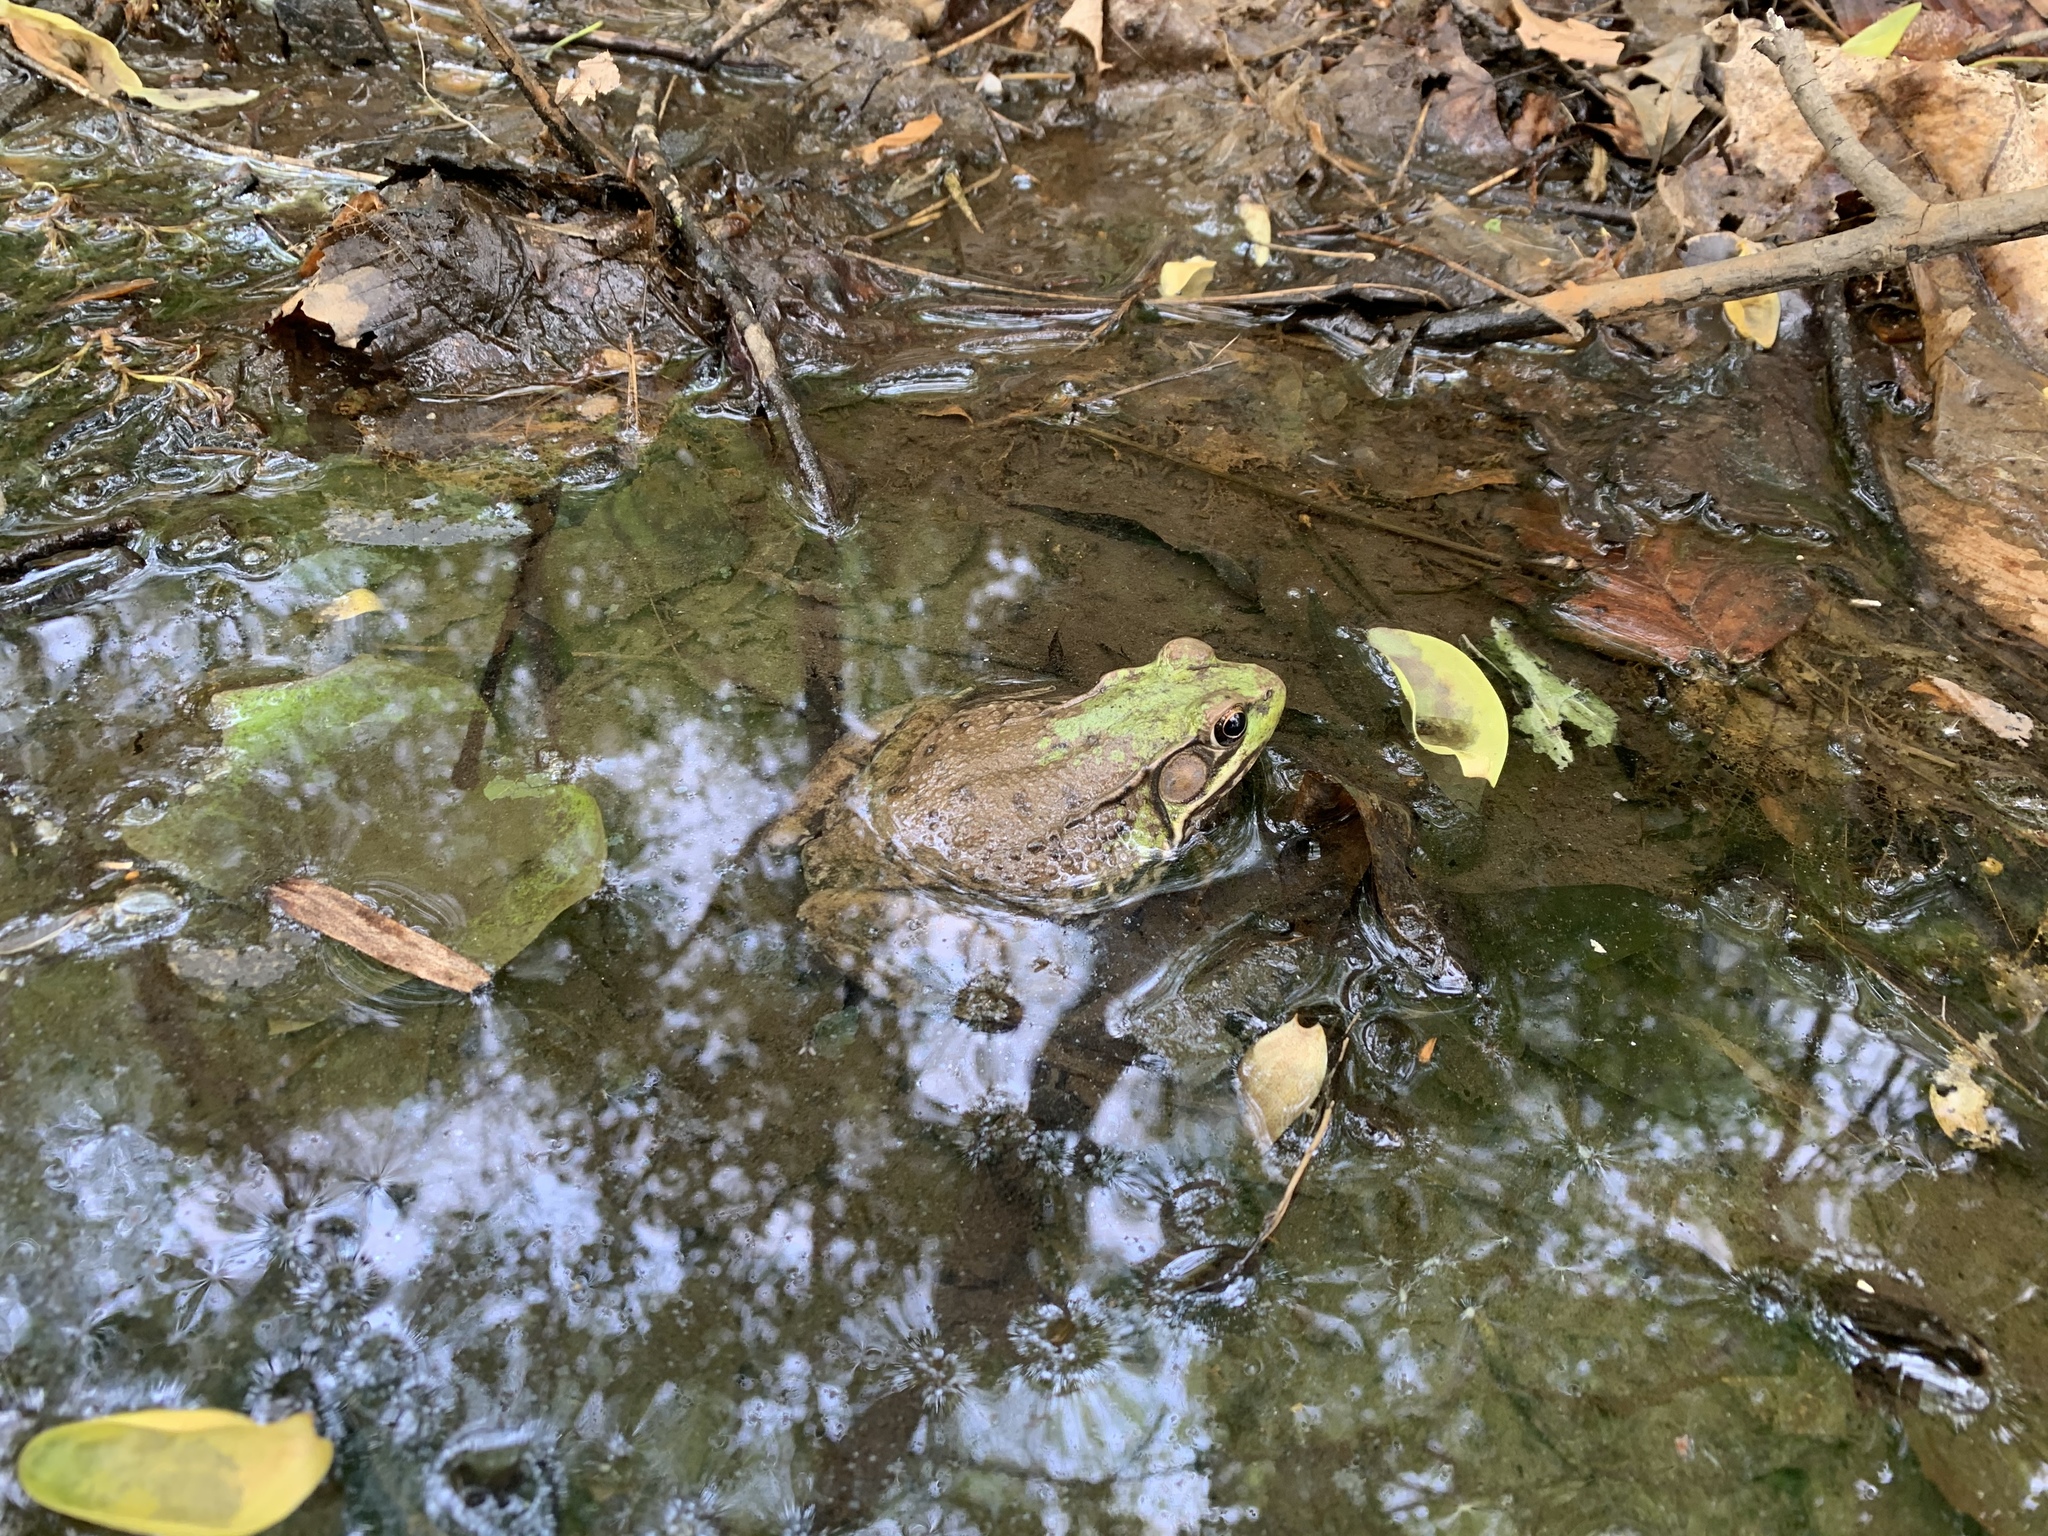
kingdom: Animalia
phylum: Chordata
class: Amphibia
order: Anura
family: Ranidae
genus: Lithobates
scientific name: Lithobates clamitans
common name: Green frog
